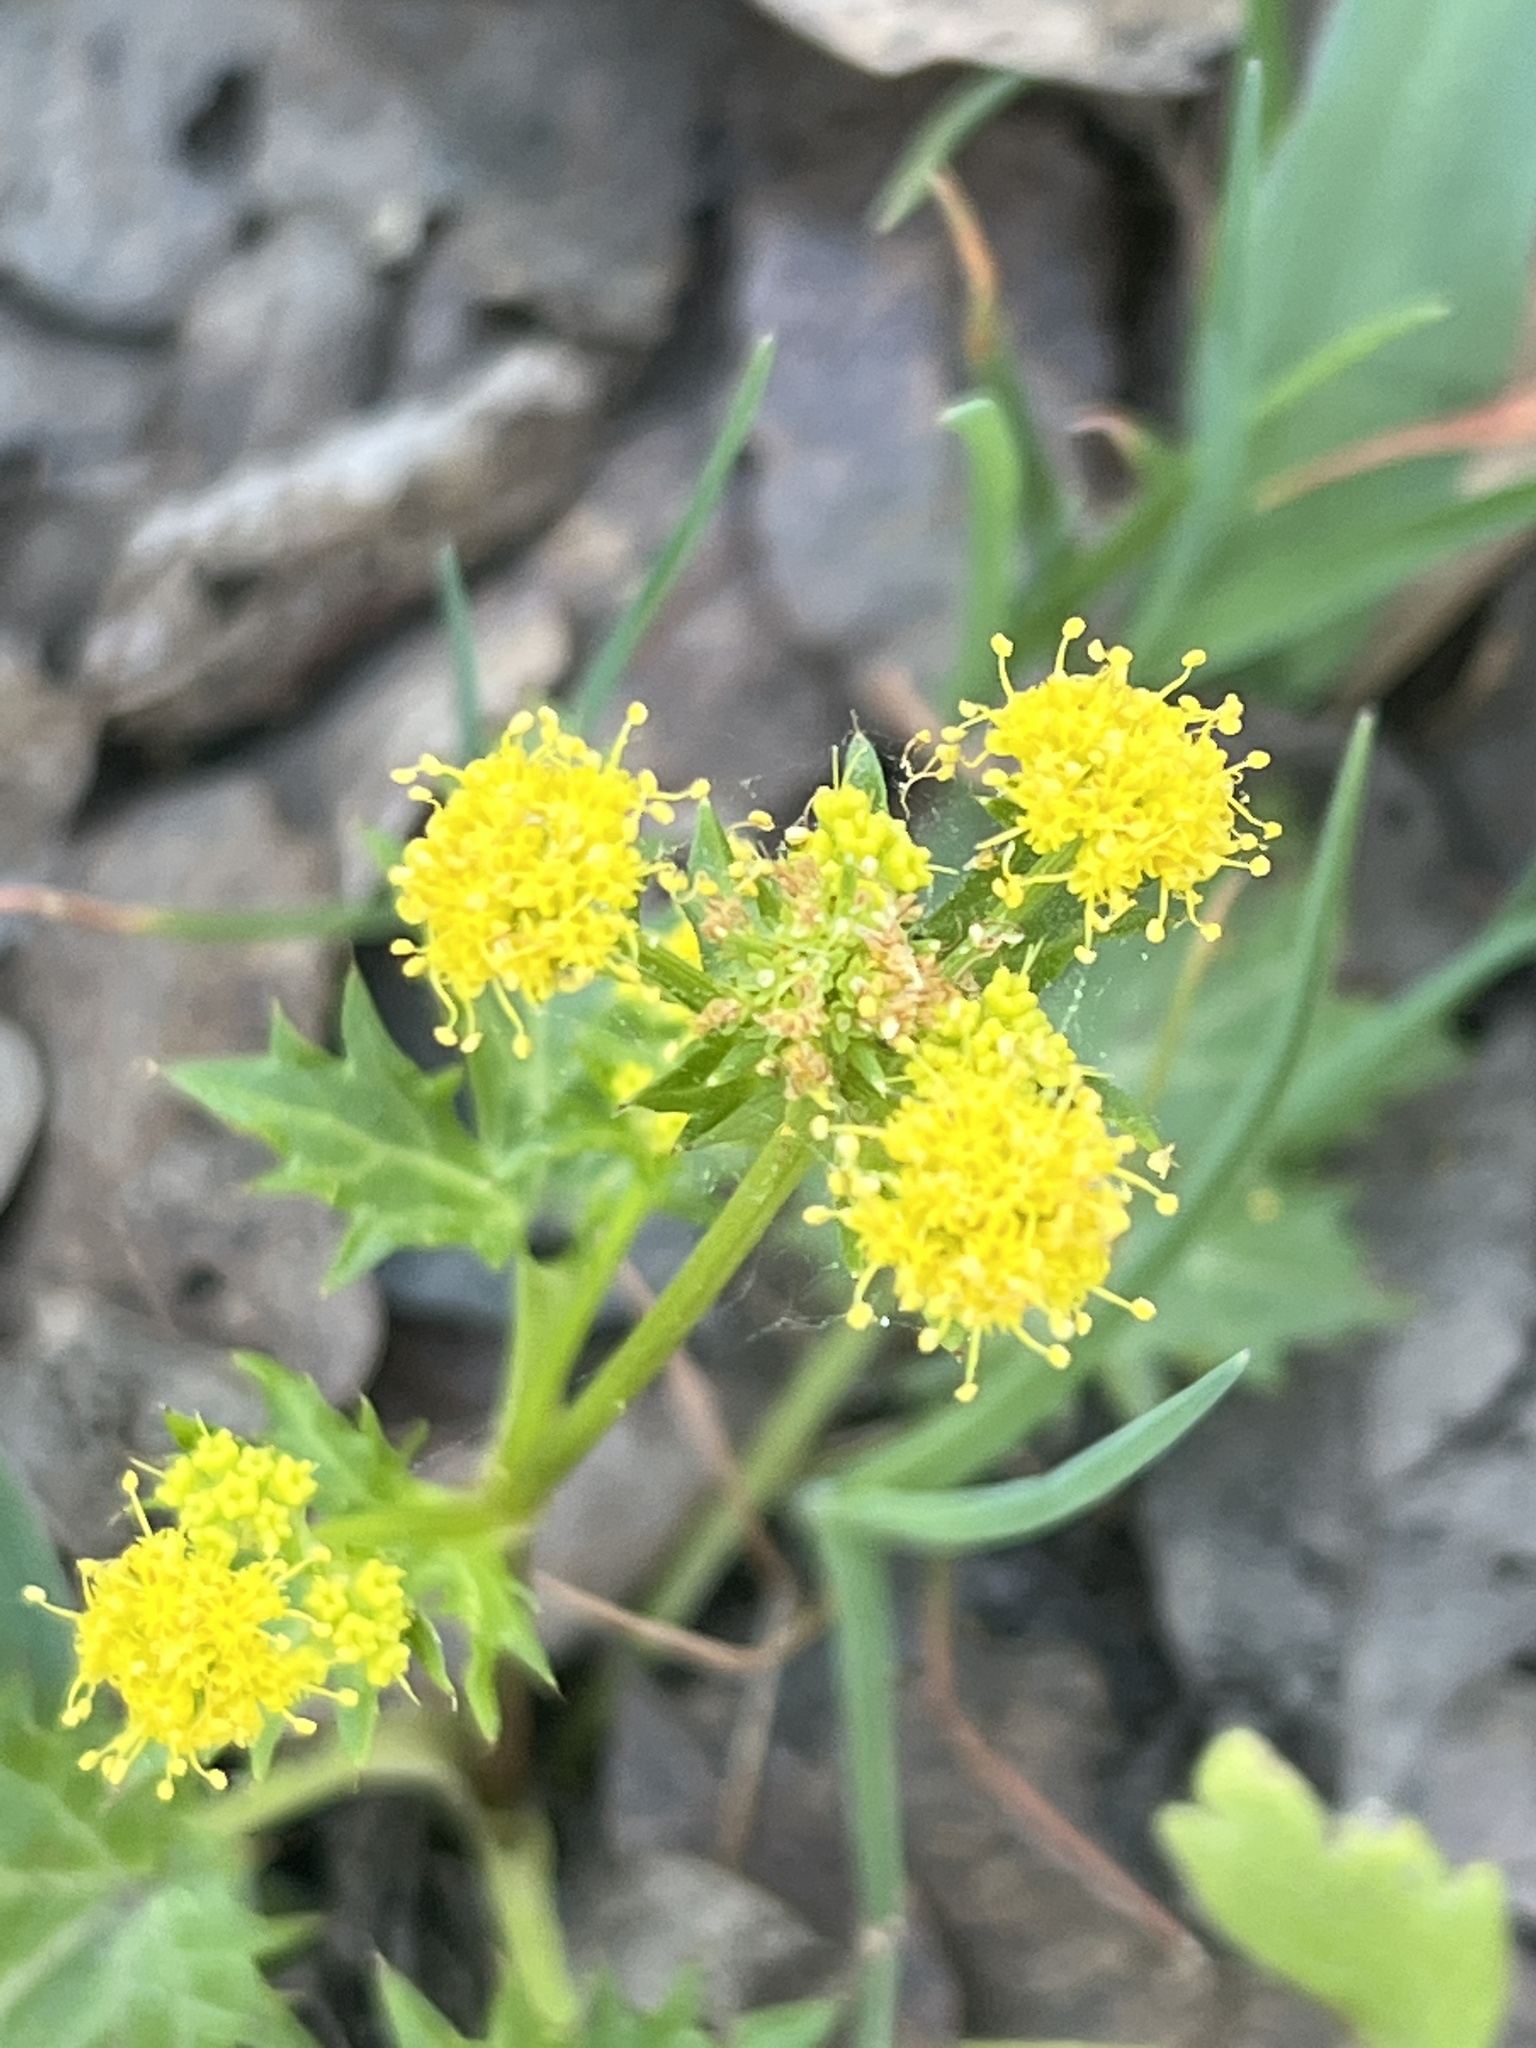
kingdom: Plantae
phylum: Tracheophyta
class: Magnoliopsida
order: Apiales
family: Apiaceae
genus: Sanicula
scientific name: Sanicula crassicaulis
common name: Western snakeroot
